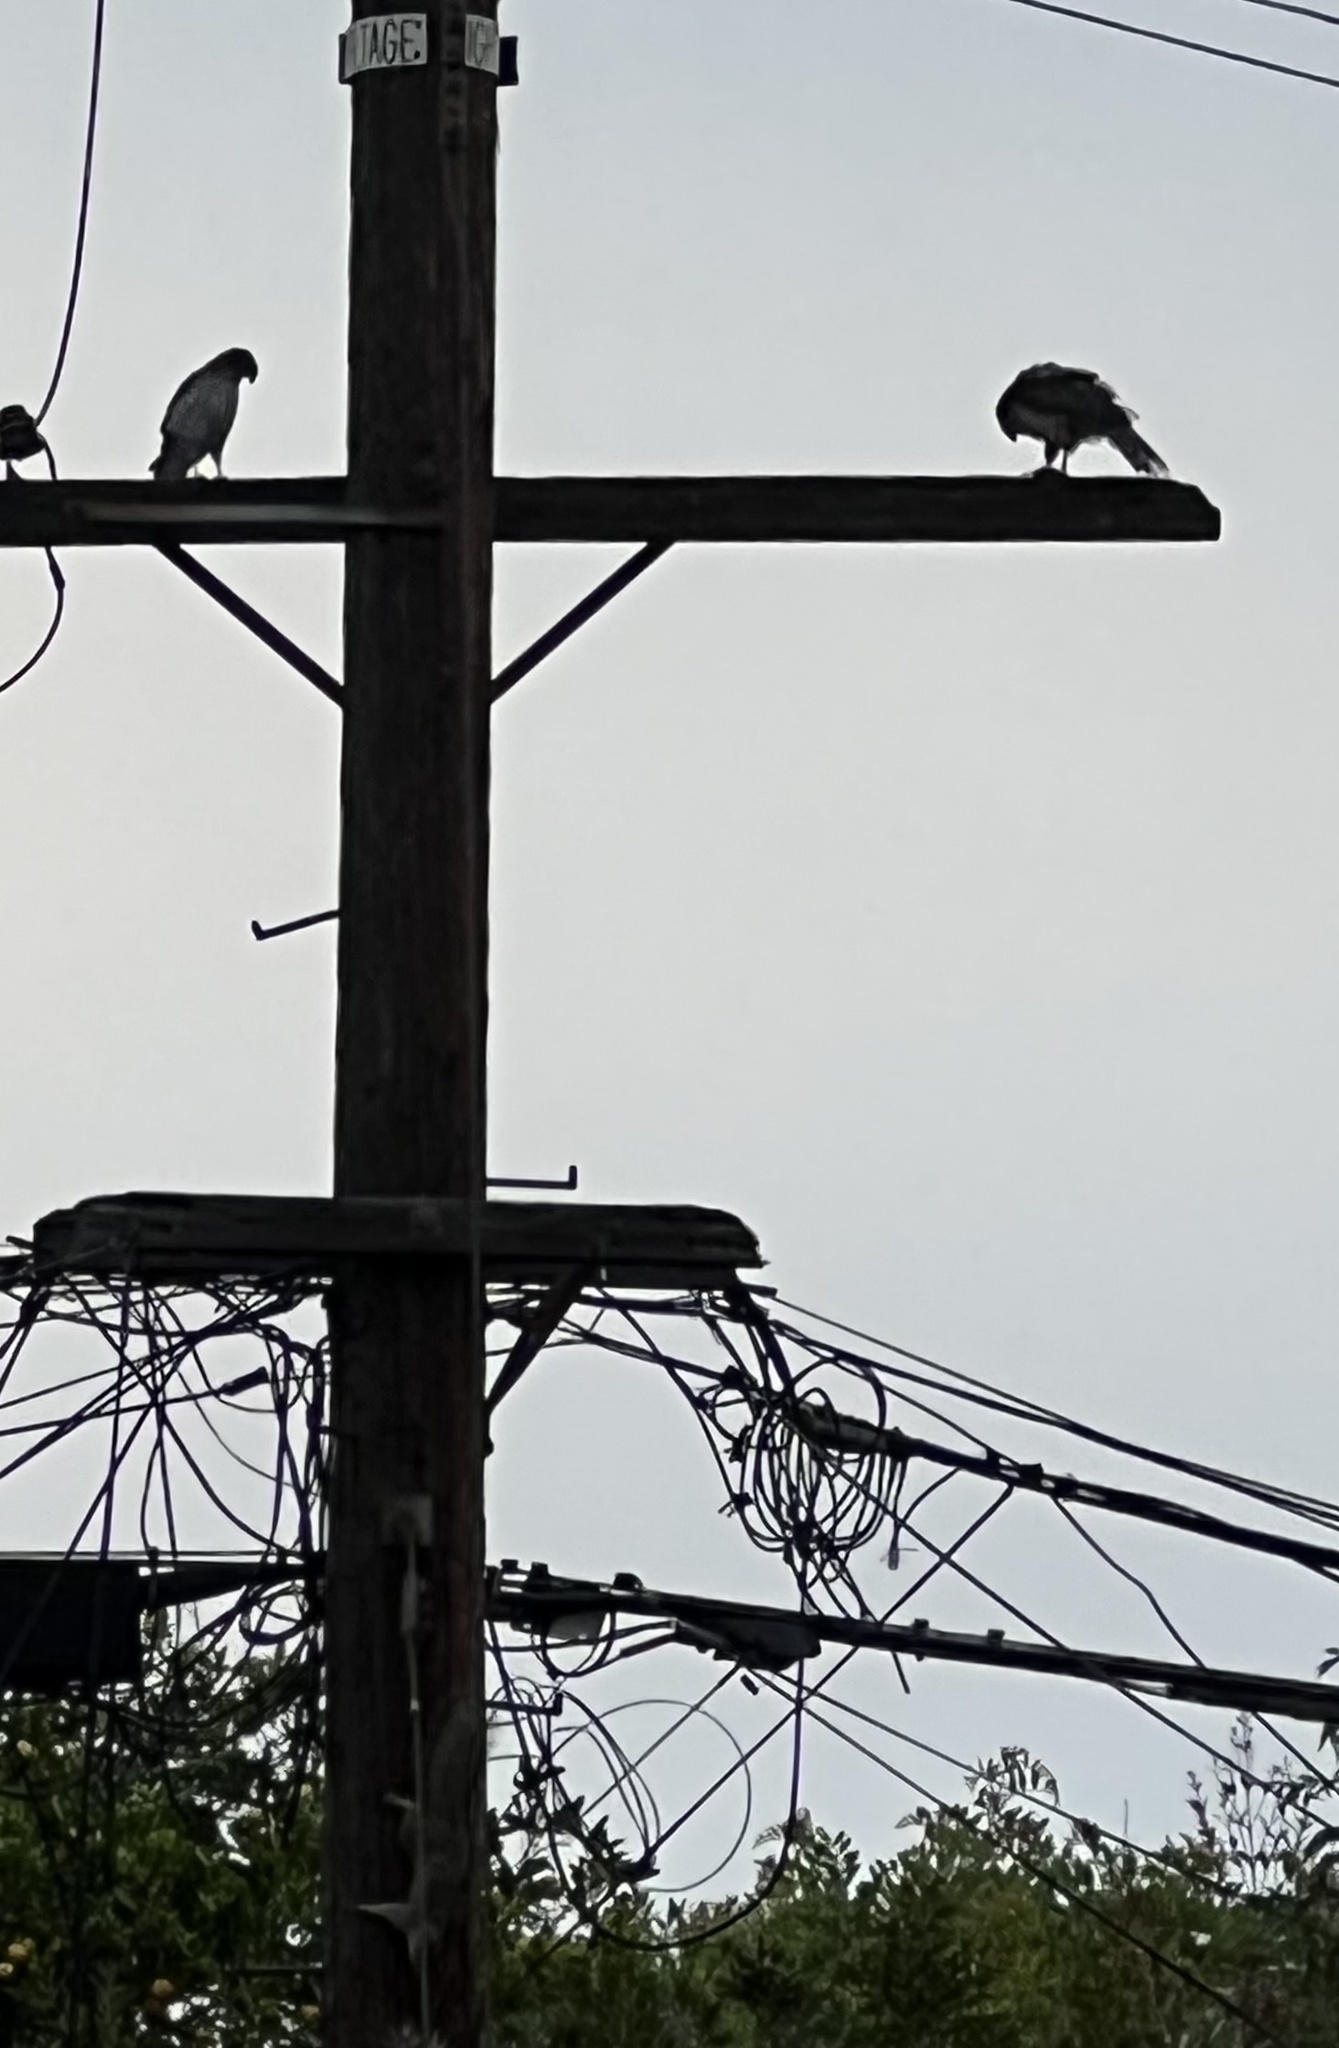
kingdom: Animalia
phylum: Chordata
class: Aves
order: Accipitriformes
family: Accipitridae
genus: Accipiter
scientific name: Accipiter cooperii
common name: Cooper's hawk
